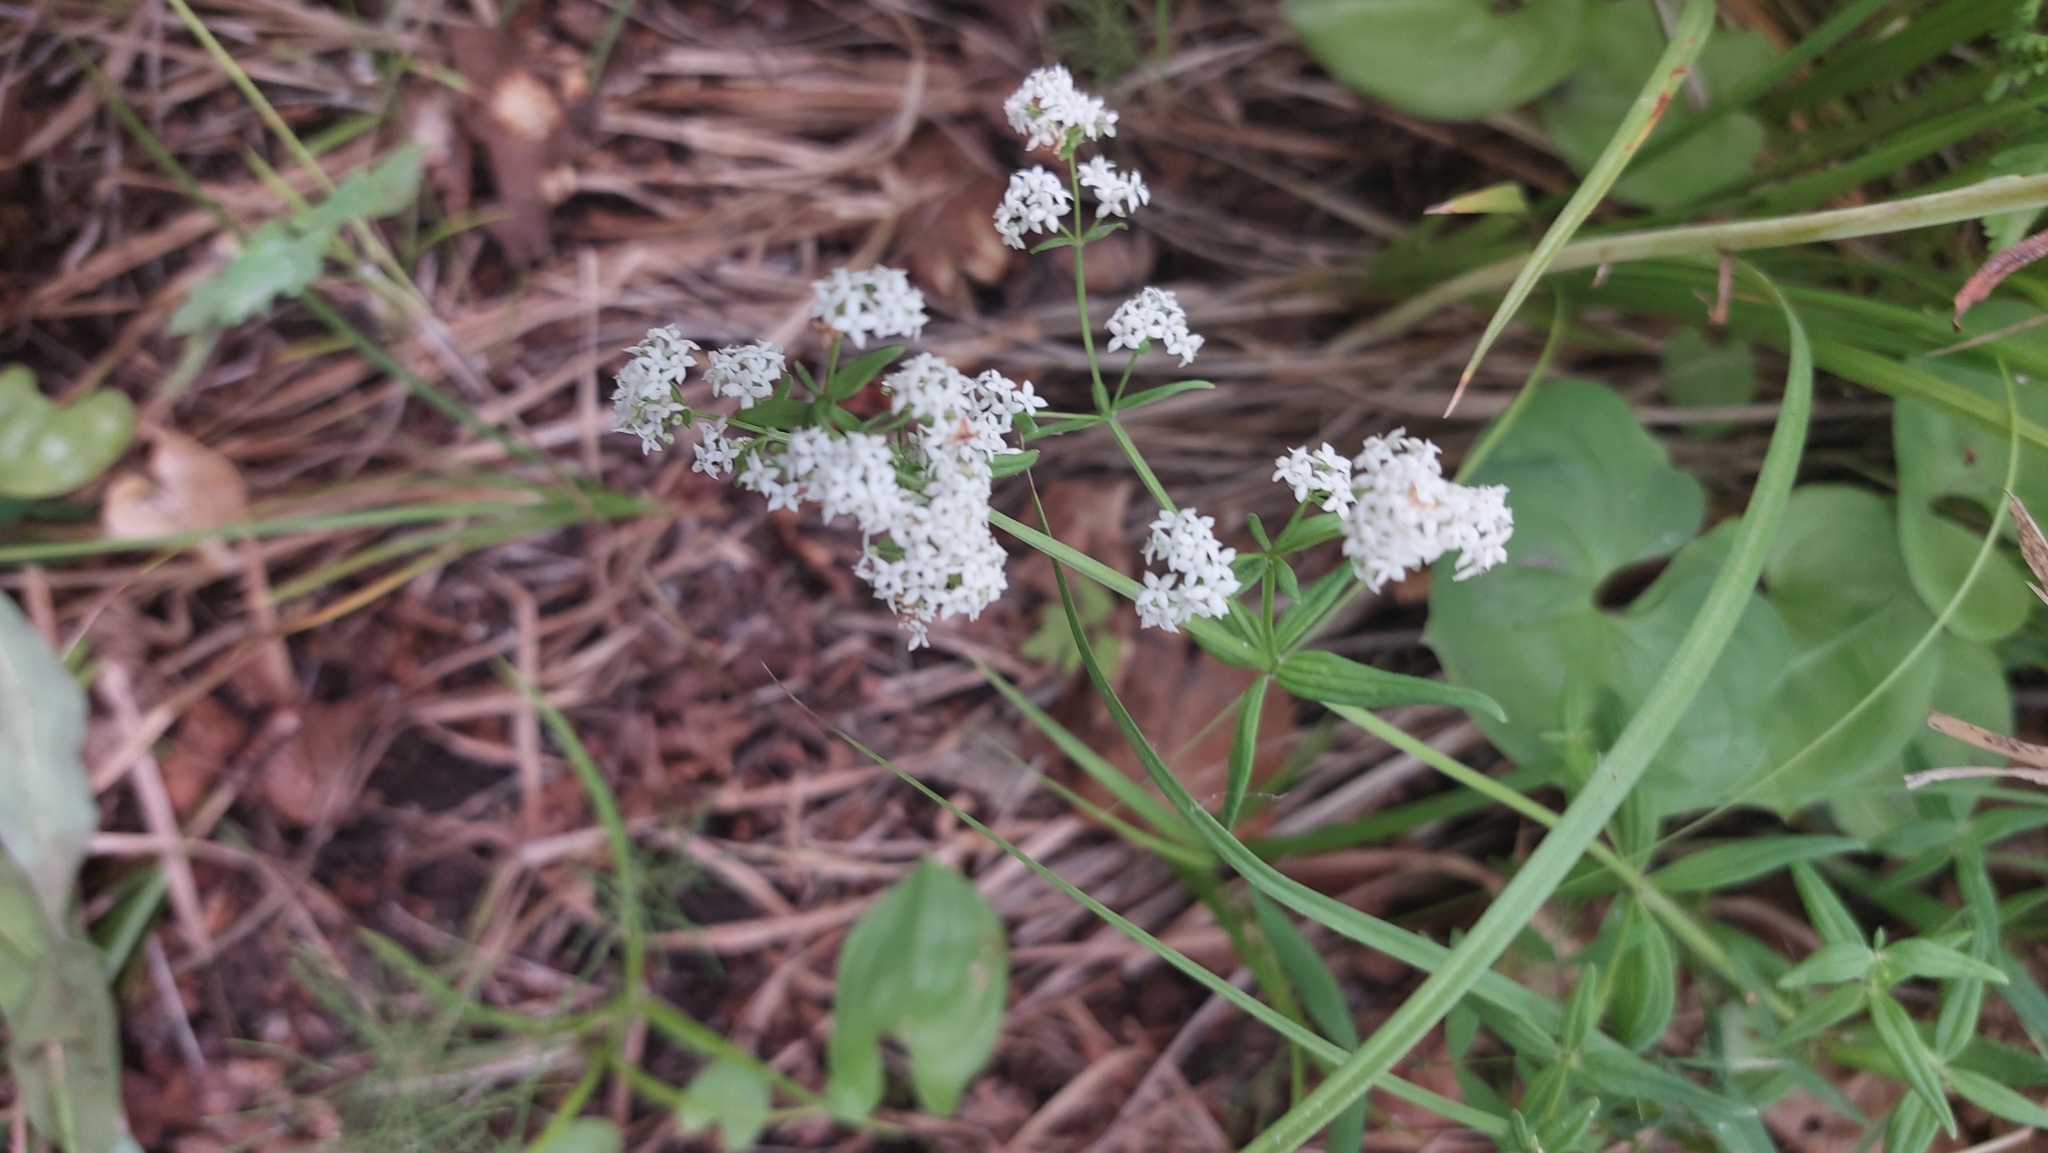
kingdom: Plantae
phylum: Tracheophyta
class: Magnoliopsida
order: Gentianales
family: Rubiaceae
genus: Galium
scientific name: Galium boreale
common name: Northern bedstraw
